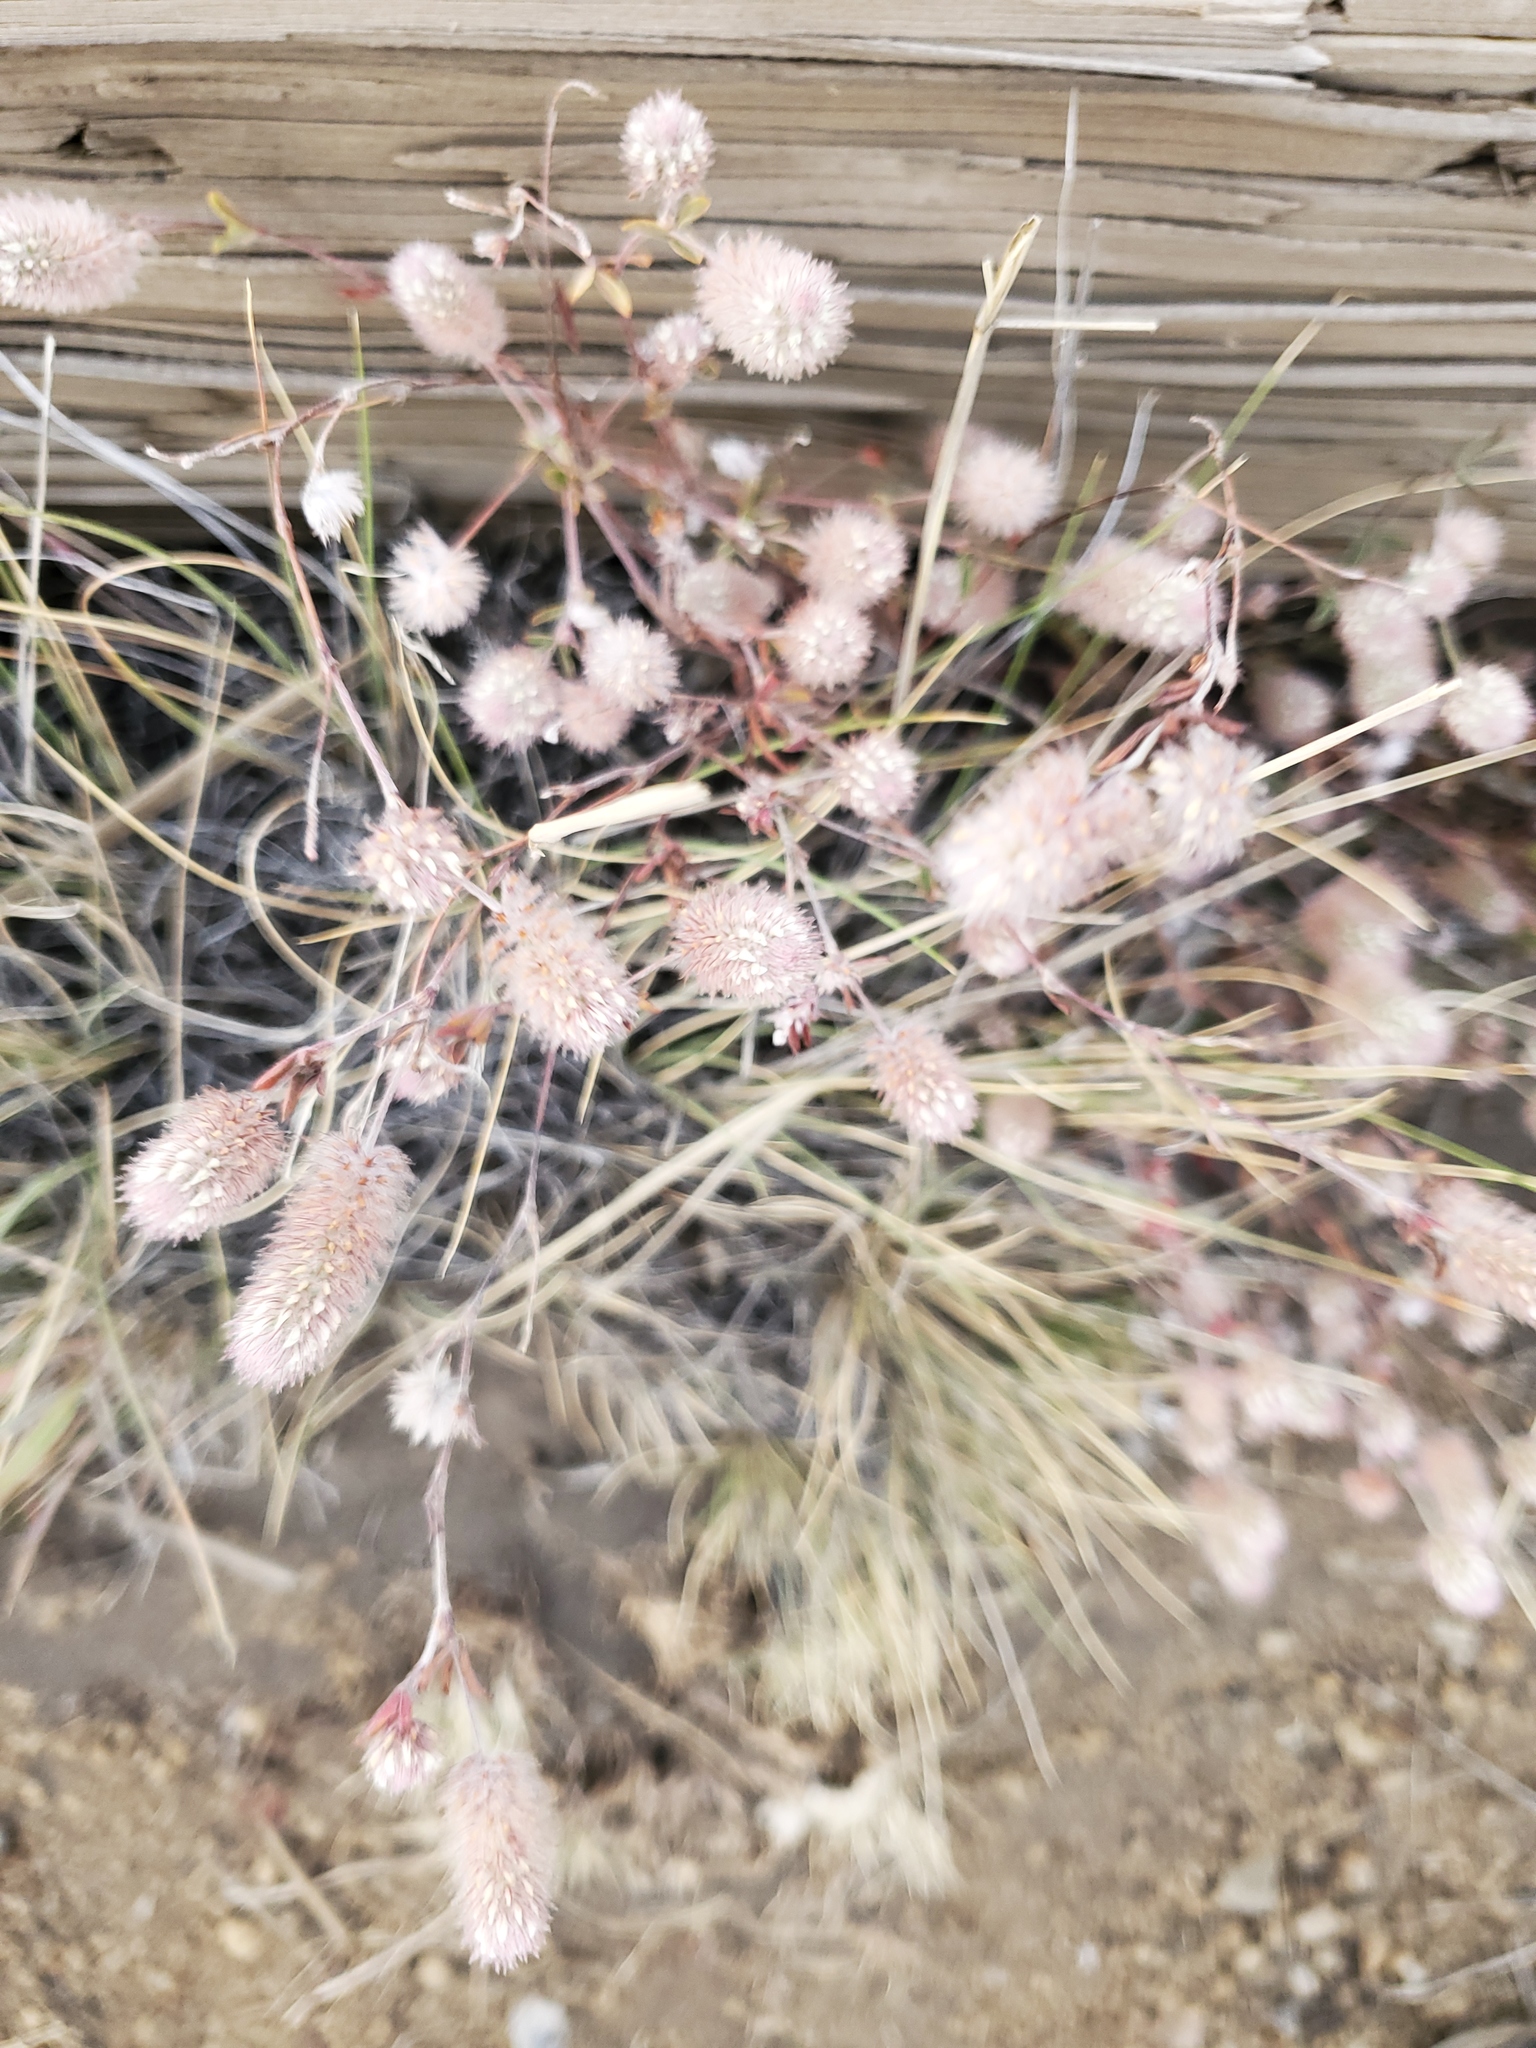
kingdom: Plantae
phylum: Tracheophyta
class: Magnoliopsida
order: Fabales
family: Fabaceae
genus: Trifolium
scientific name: Trifolium arvense
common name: Hare's-foot clover
